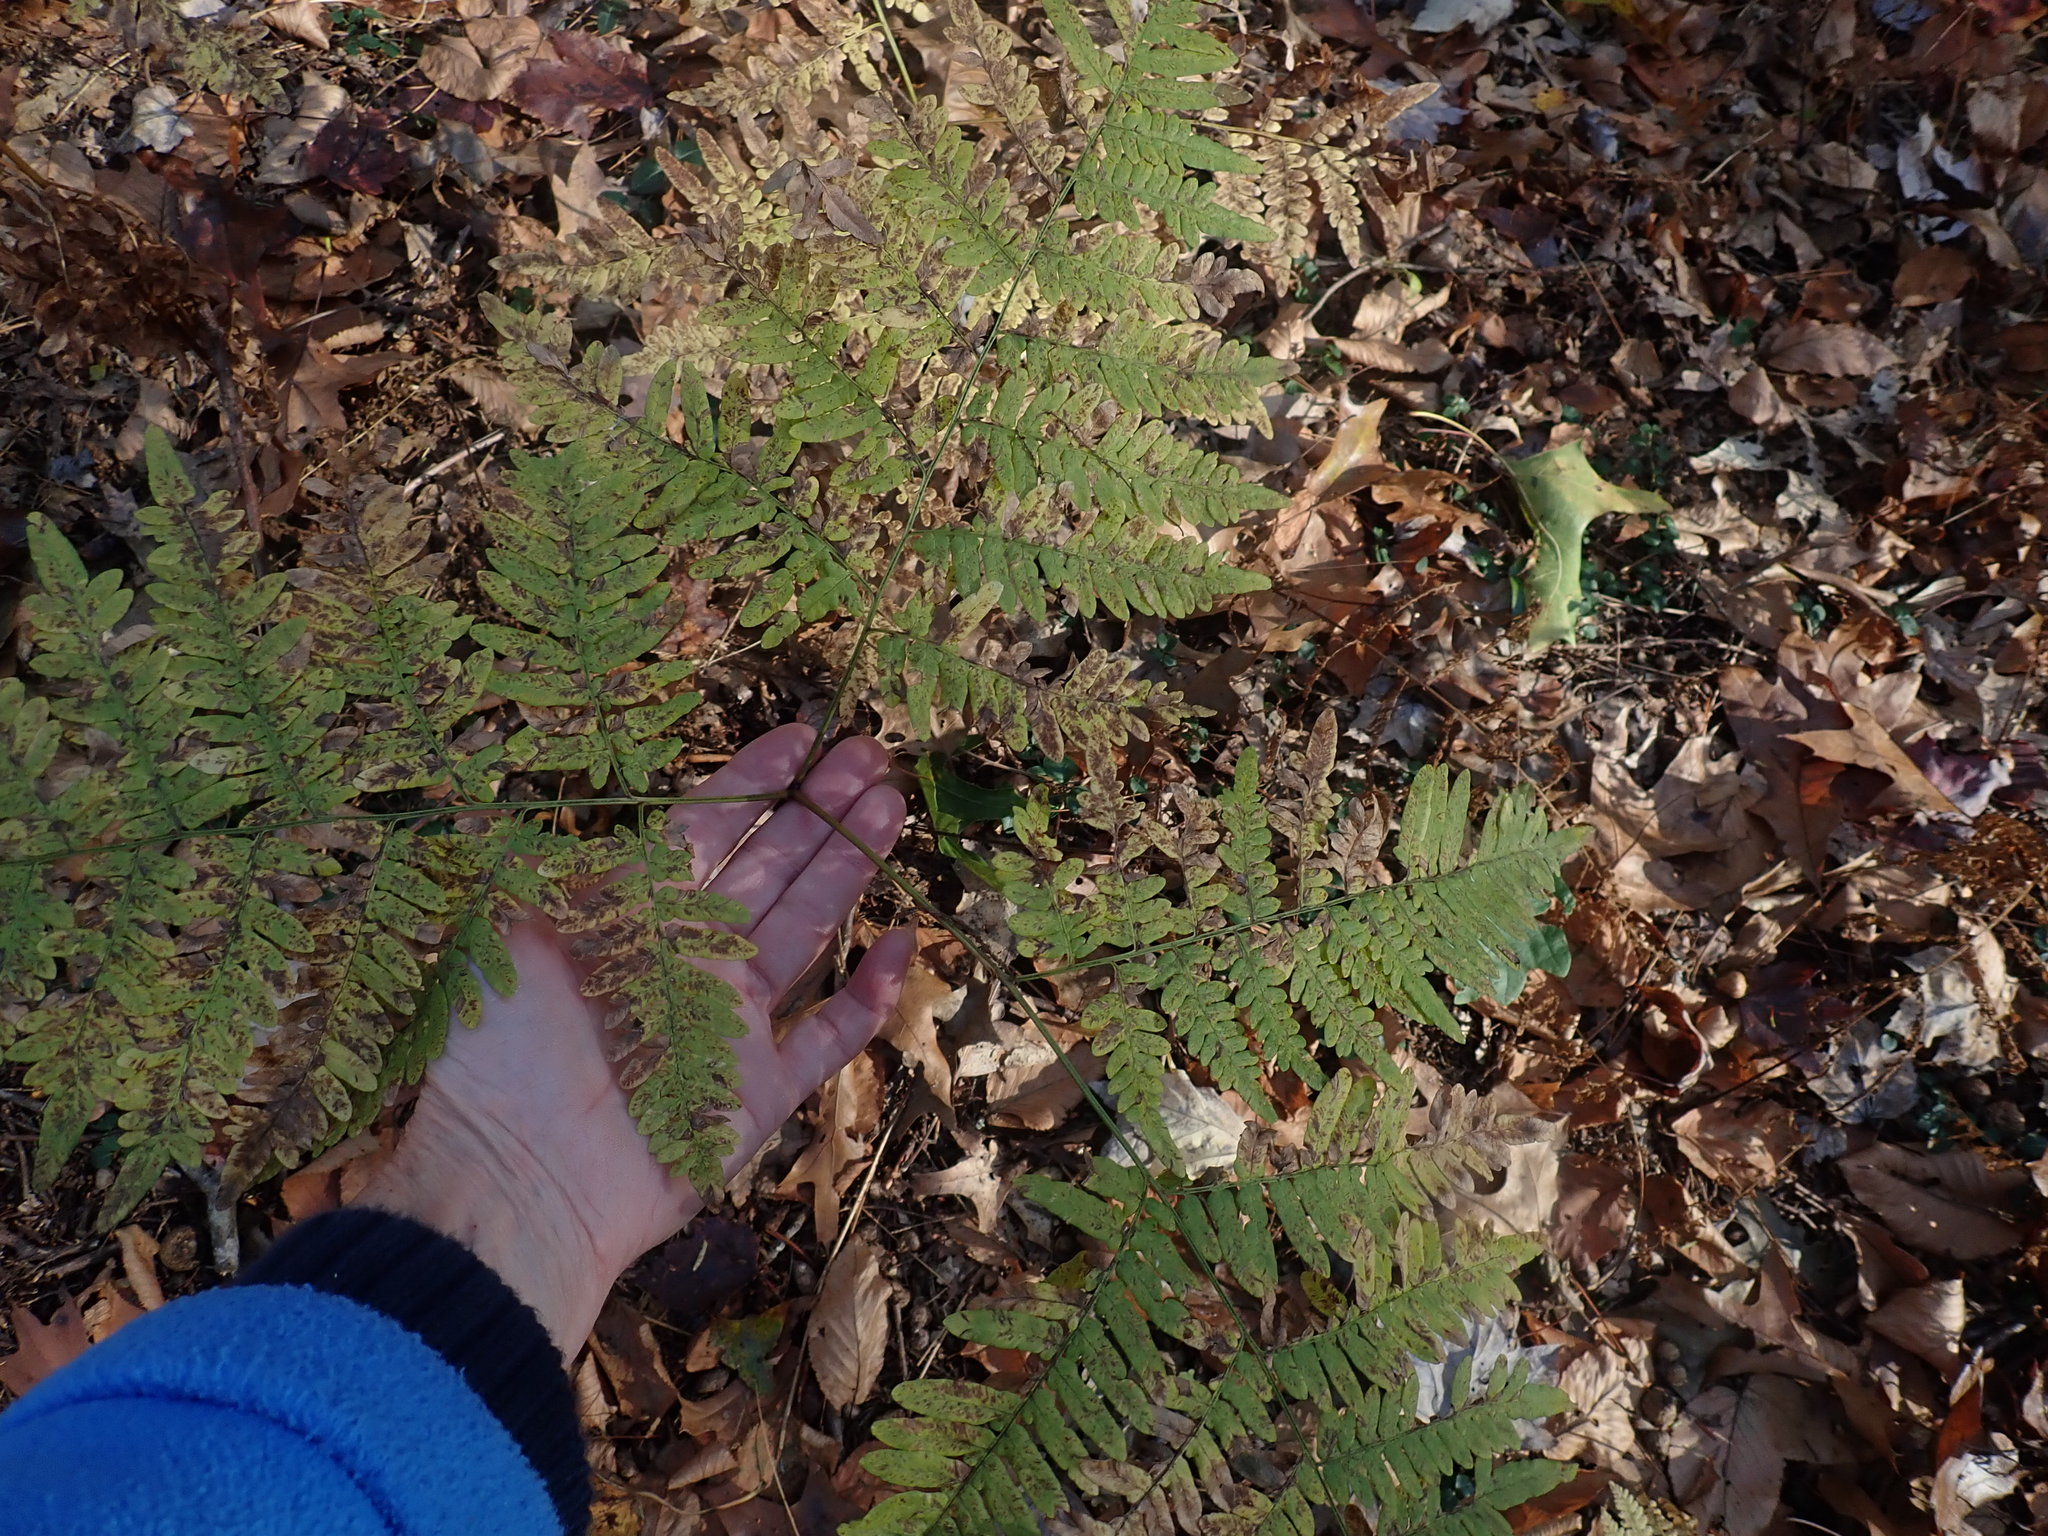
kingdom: Plantae
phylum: Tracheophyta
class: Polypodiopsida
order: Polypodiales
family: Dennstaedtiaceae
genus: Pteridium
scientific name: Pteridium aquilinum
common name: Bracken
